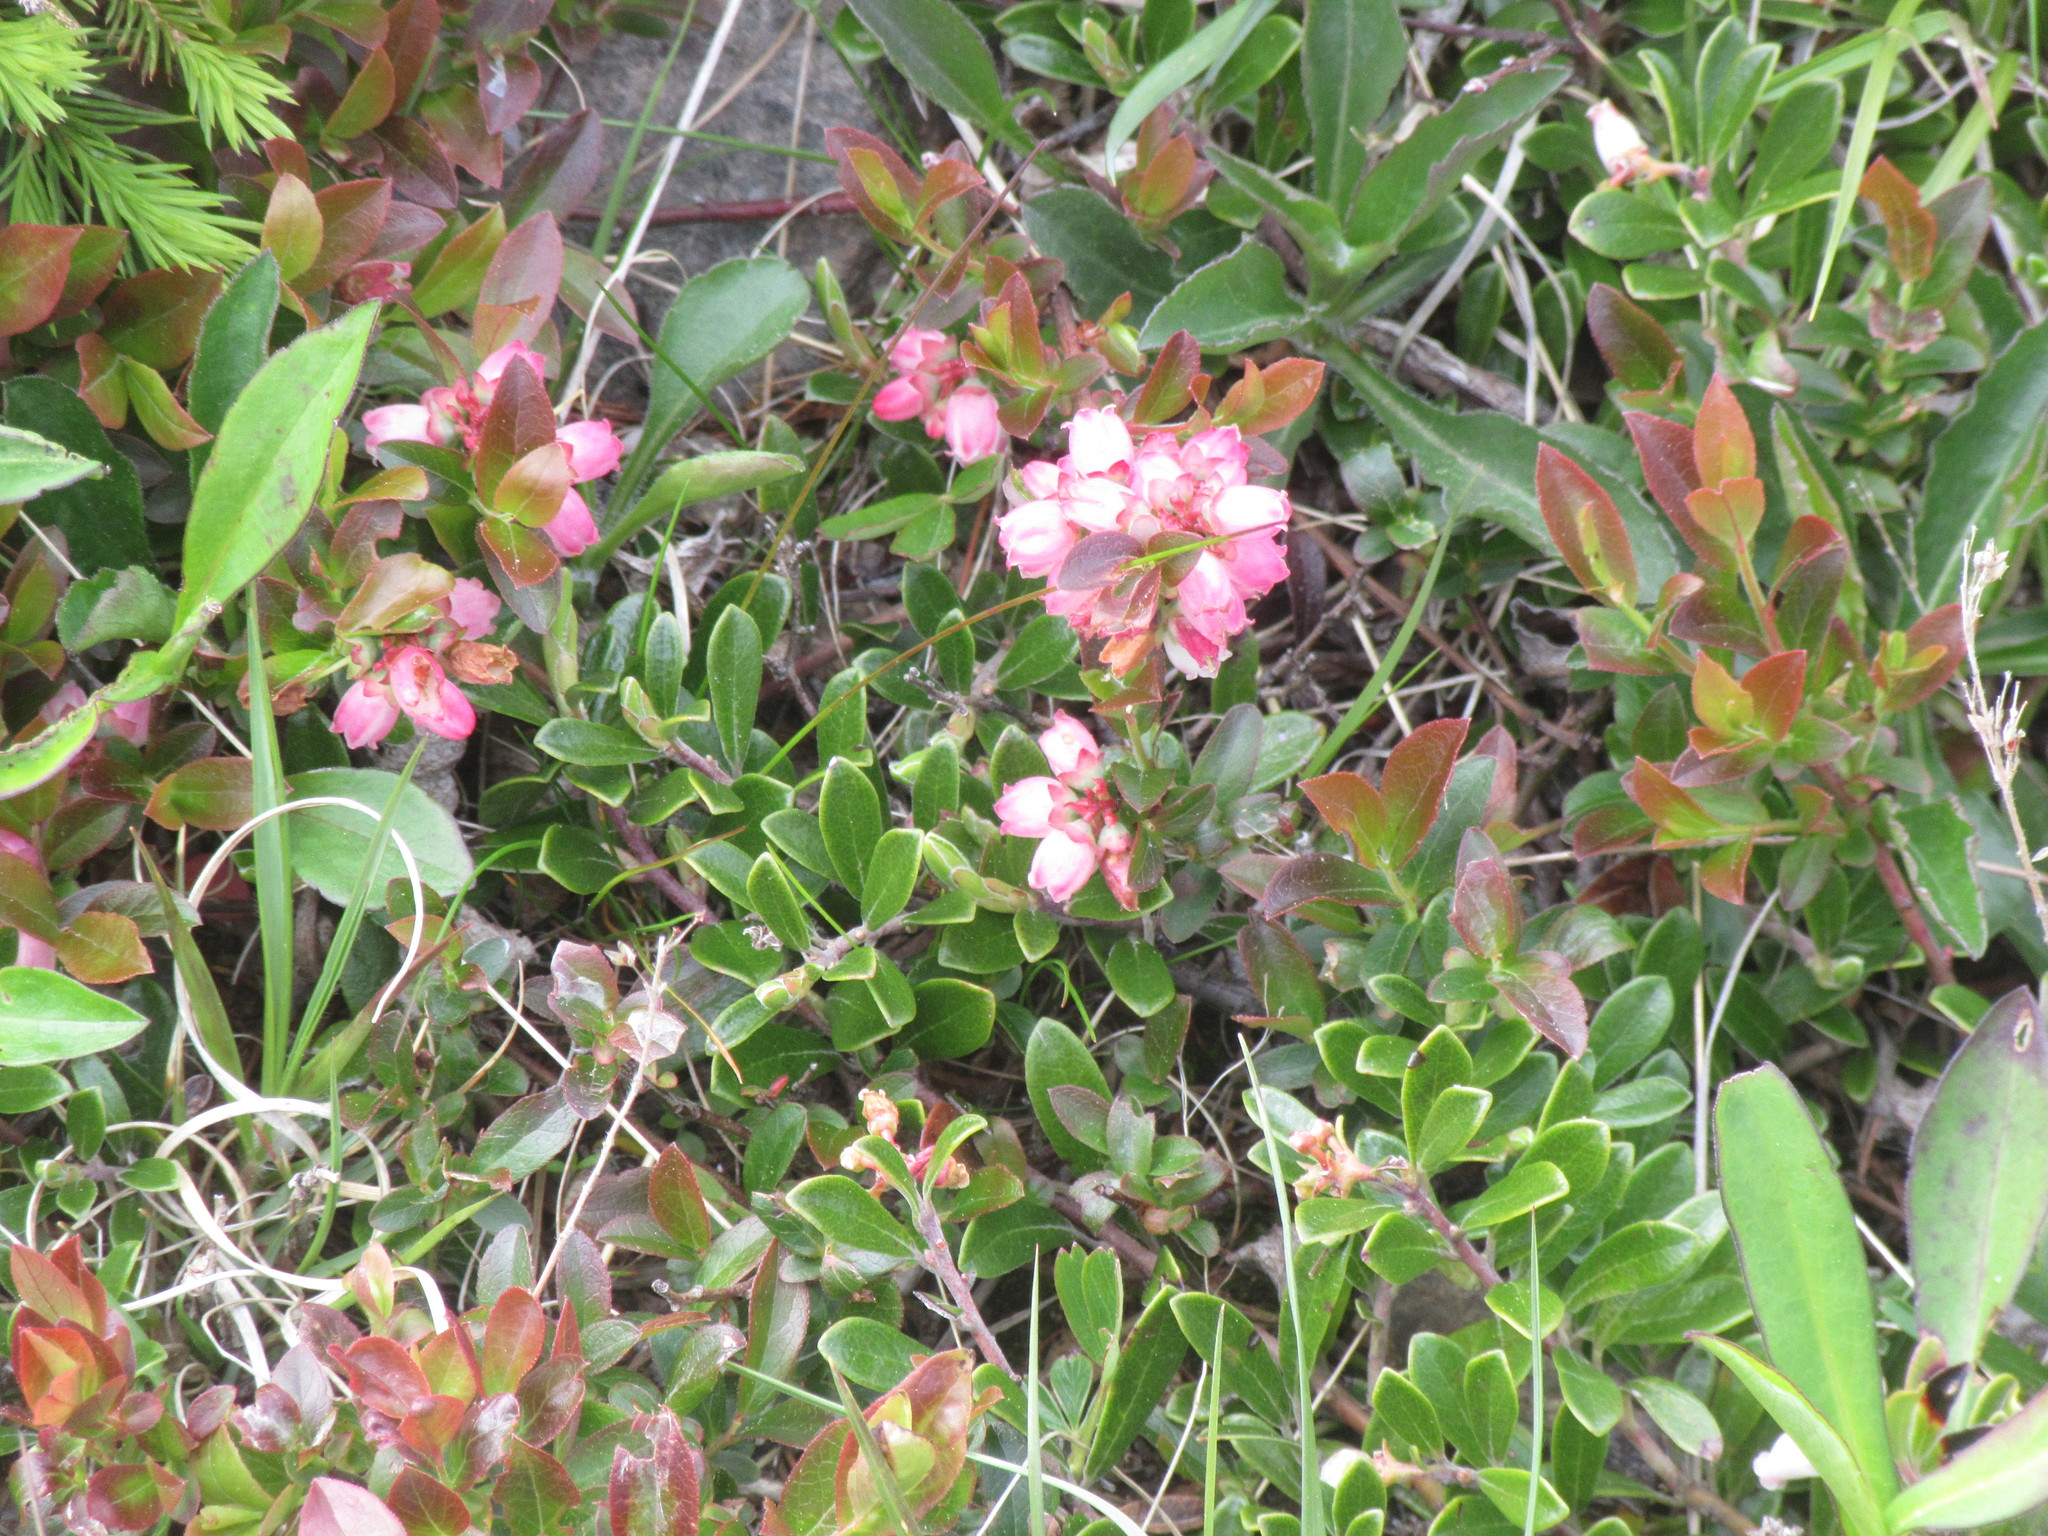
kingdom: Plantae
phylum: Tracheophyta
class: Magnoliopsida
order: Ericales
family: Ericaceae
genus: Vaccinium
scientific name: Vaccinium angustifolium
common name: Early lowbush blueberry
